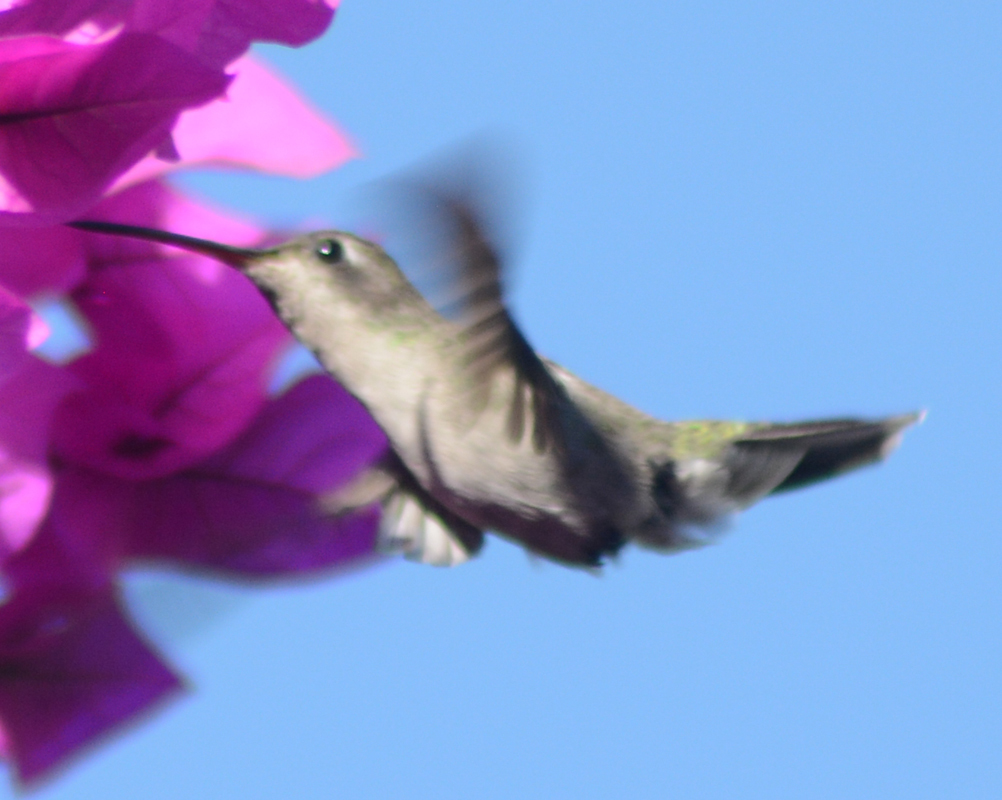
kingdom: Animalia
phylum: Chordata
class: Aves
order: Apodiformes
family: Trochilidae
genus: Cynanthus
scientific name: Cynanthus latirostris
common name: Broad-billed hummingbird
